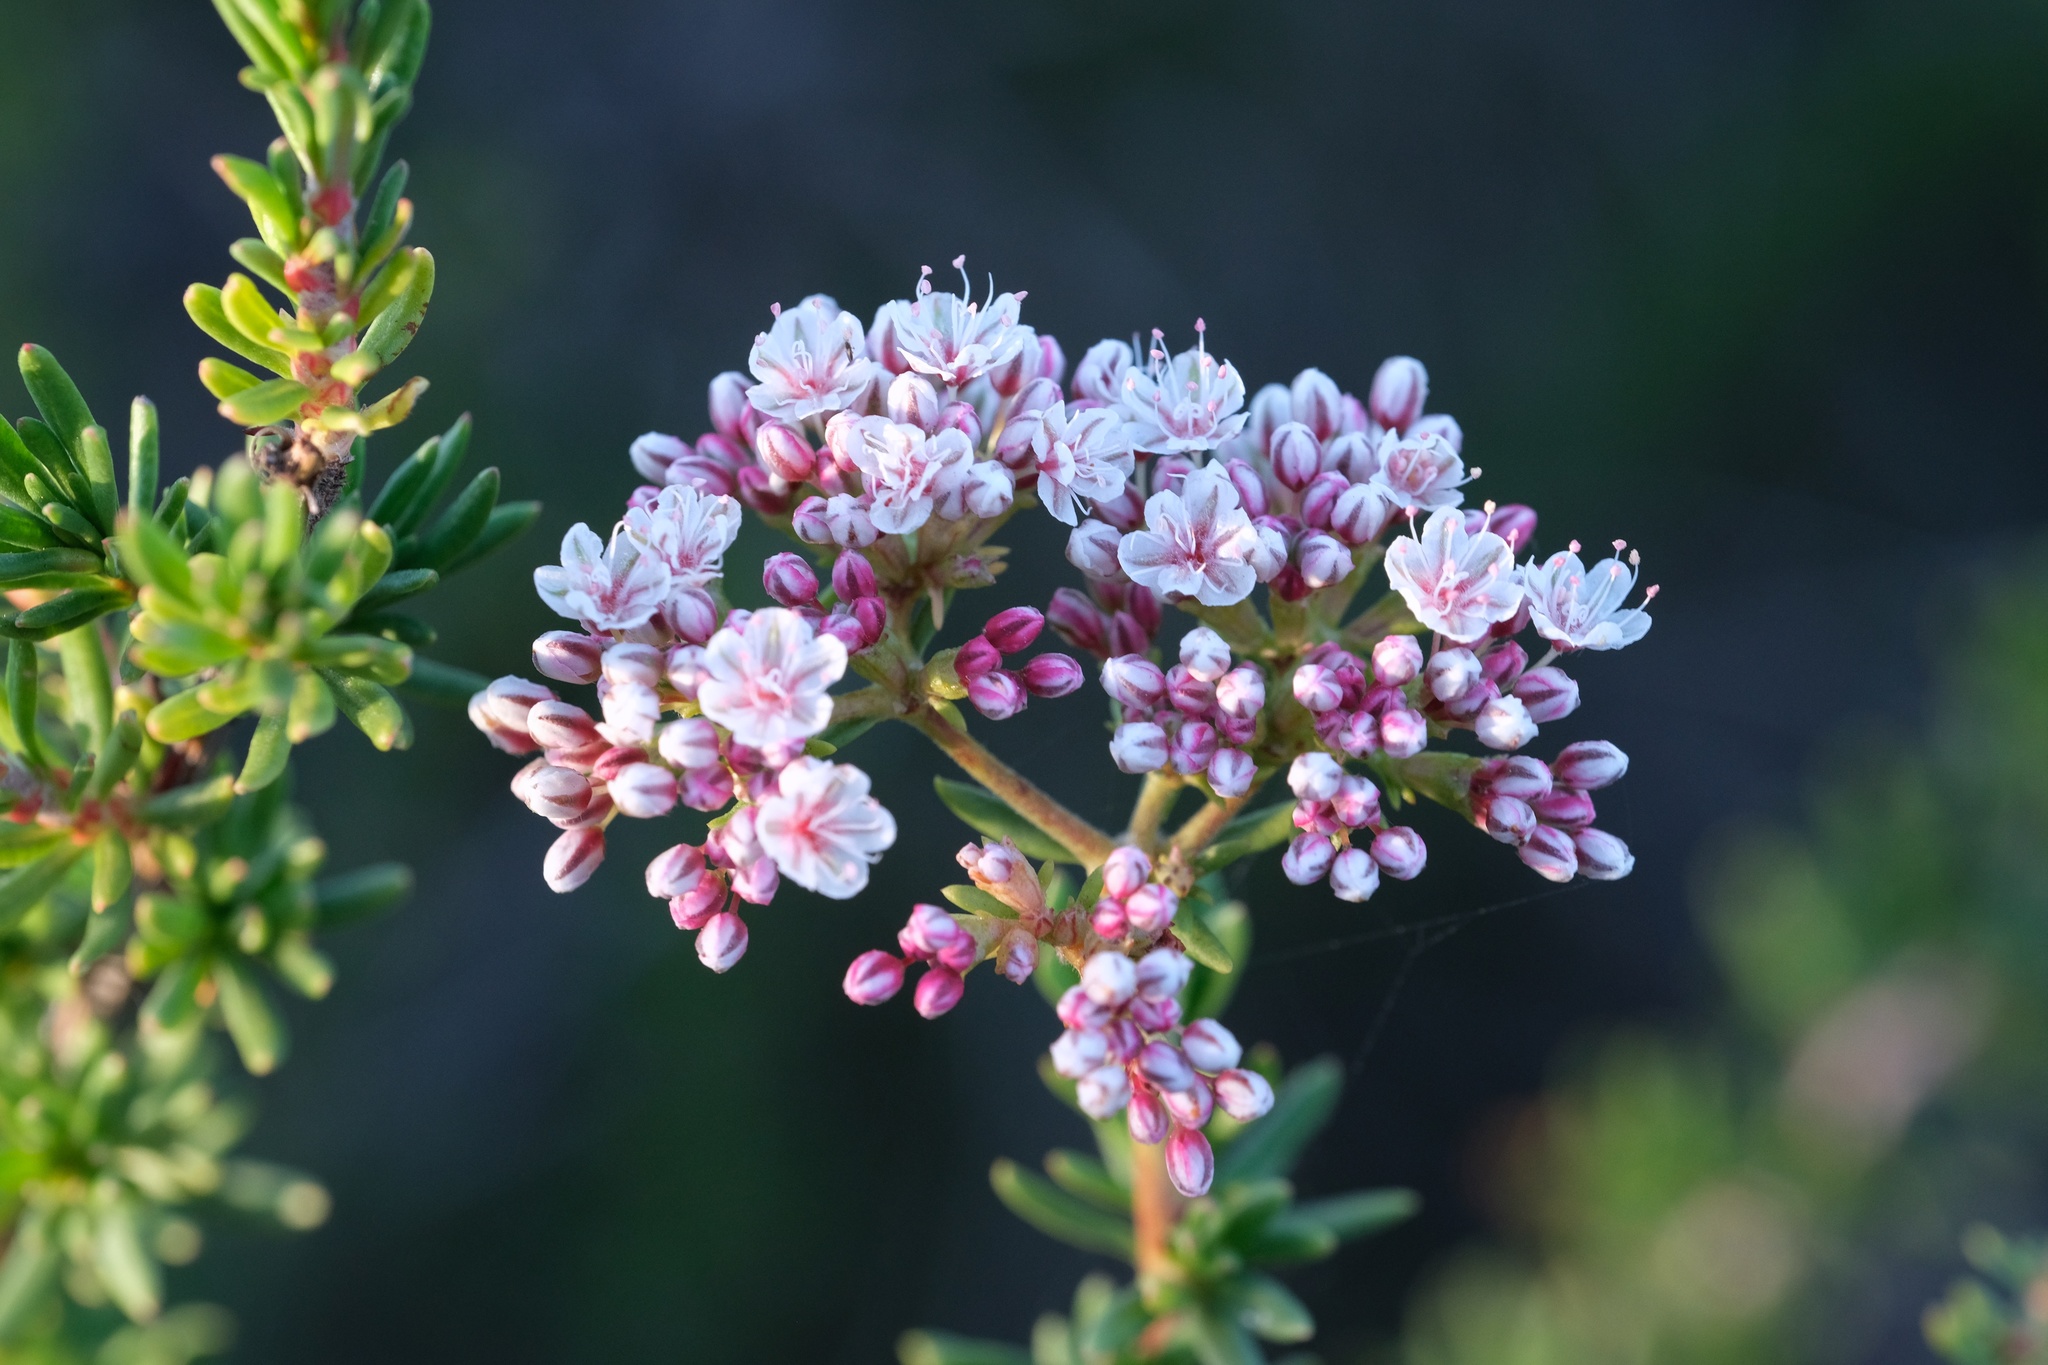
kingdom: Plantae
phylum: Tracheophyta
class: Magnoliopsida
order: Caryophyllales
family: Polygonaceae
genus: Eriogonum
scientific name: Eriogonum fasciculatum
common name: California wild buckwheat
